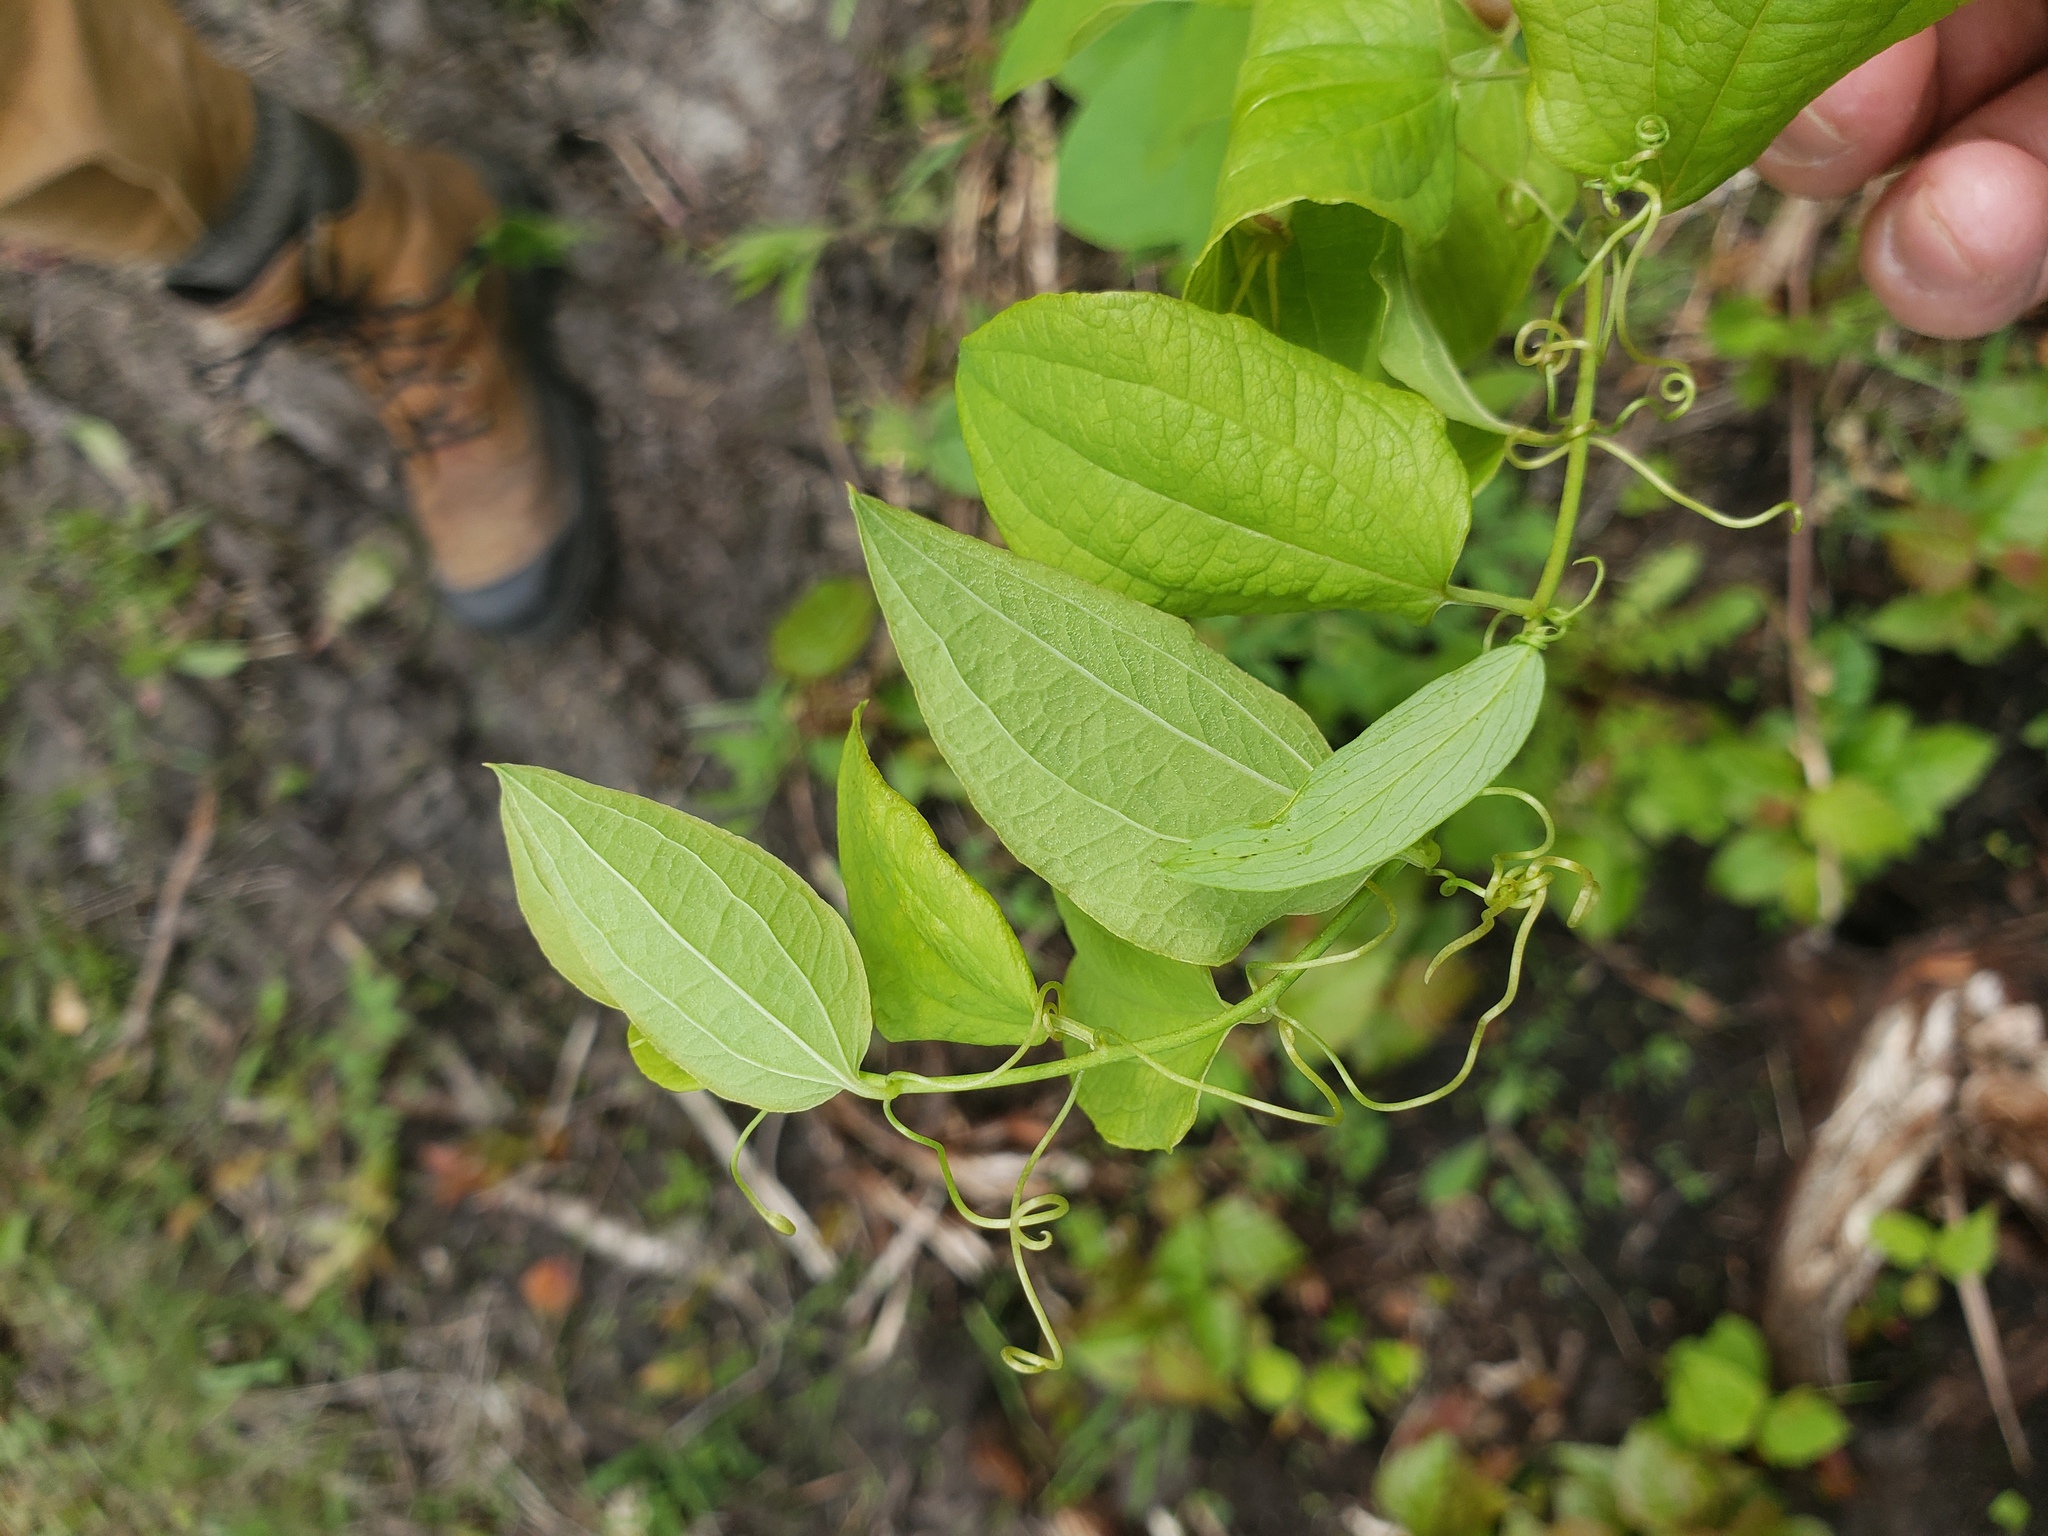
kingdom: Plantae
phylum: Tracheophyta
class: Liliopsida
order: Liliales
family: Smilacaceae
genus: Smilax
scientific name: Smilax lasioneura
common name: Blue ridge carrionflower
